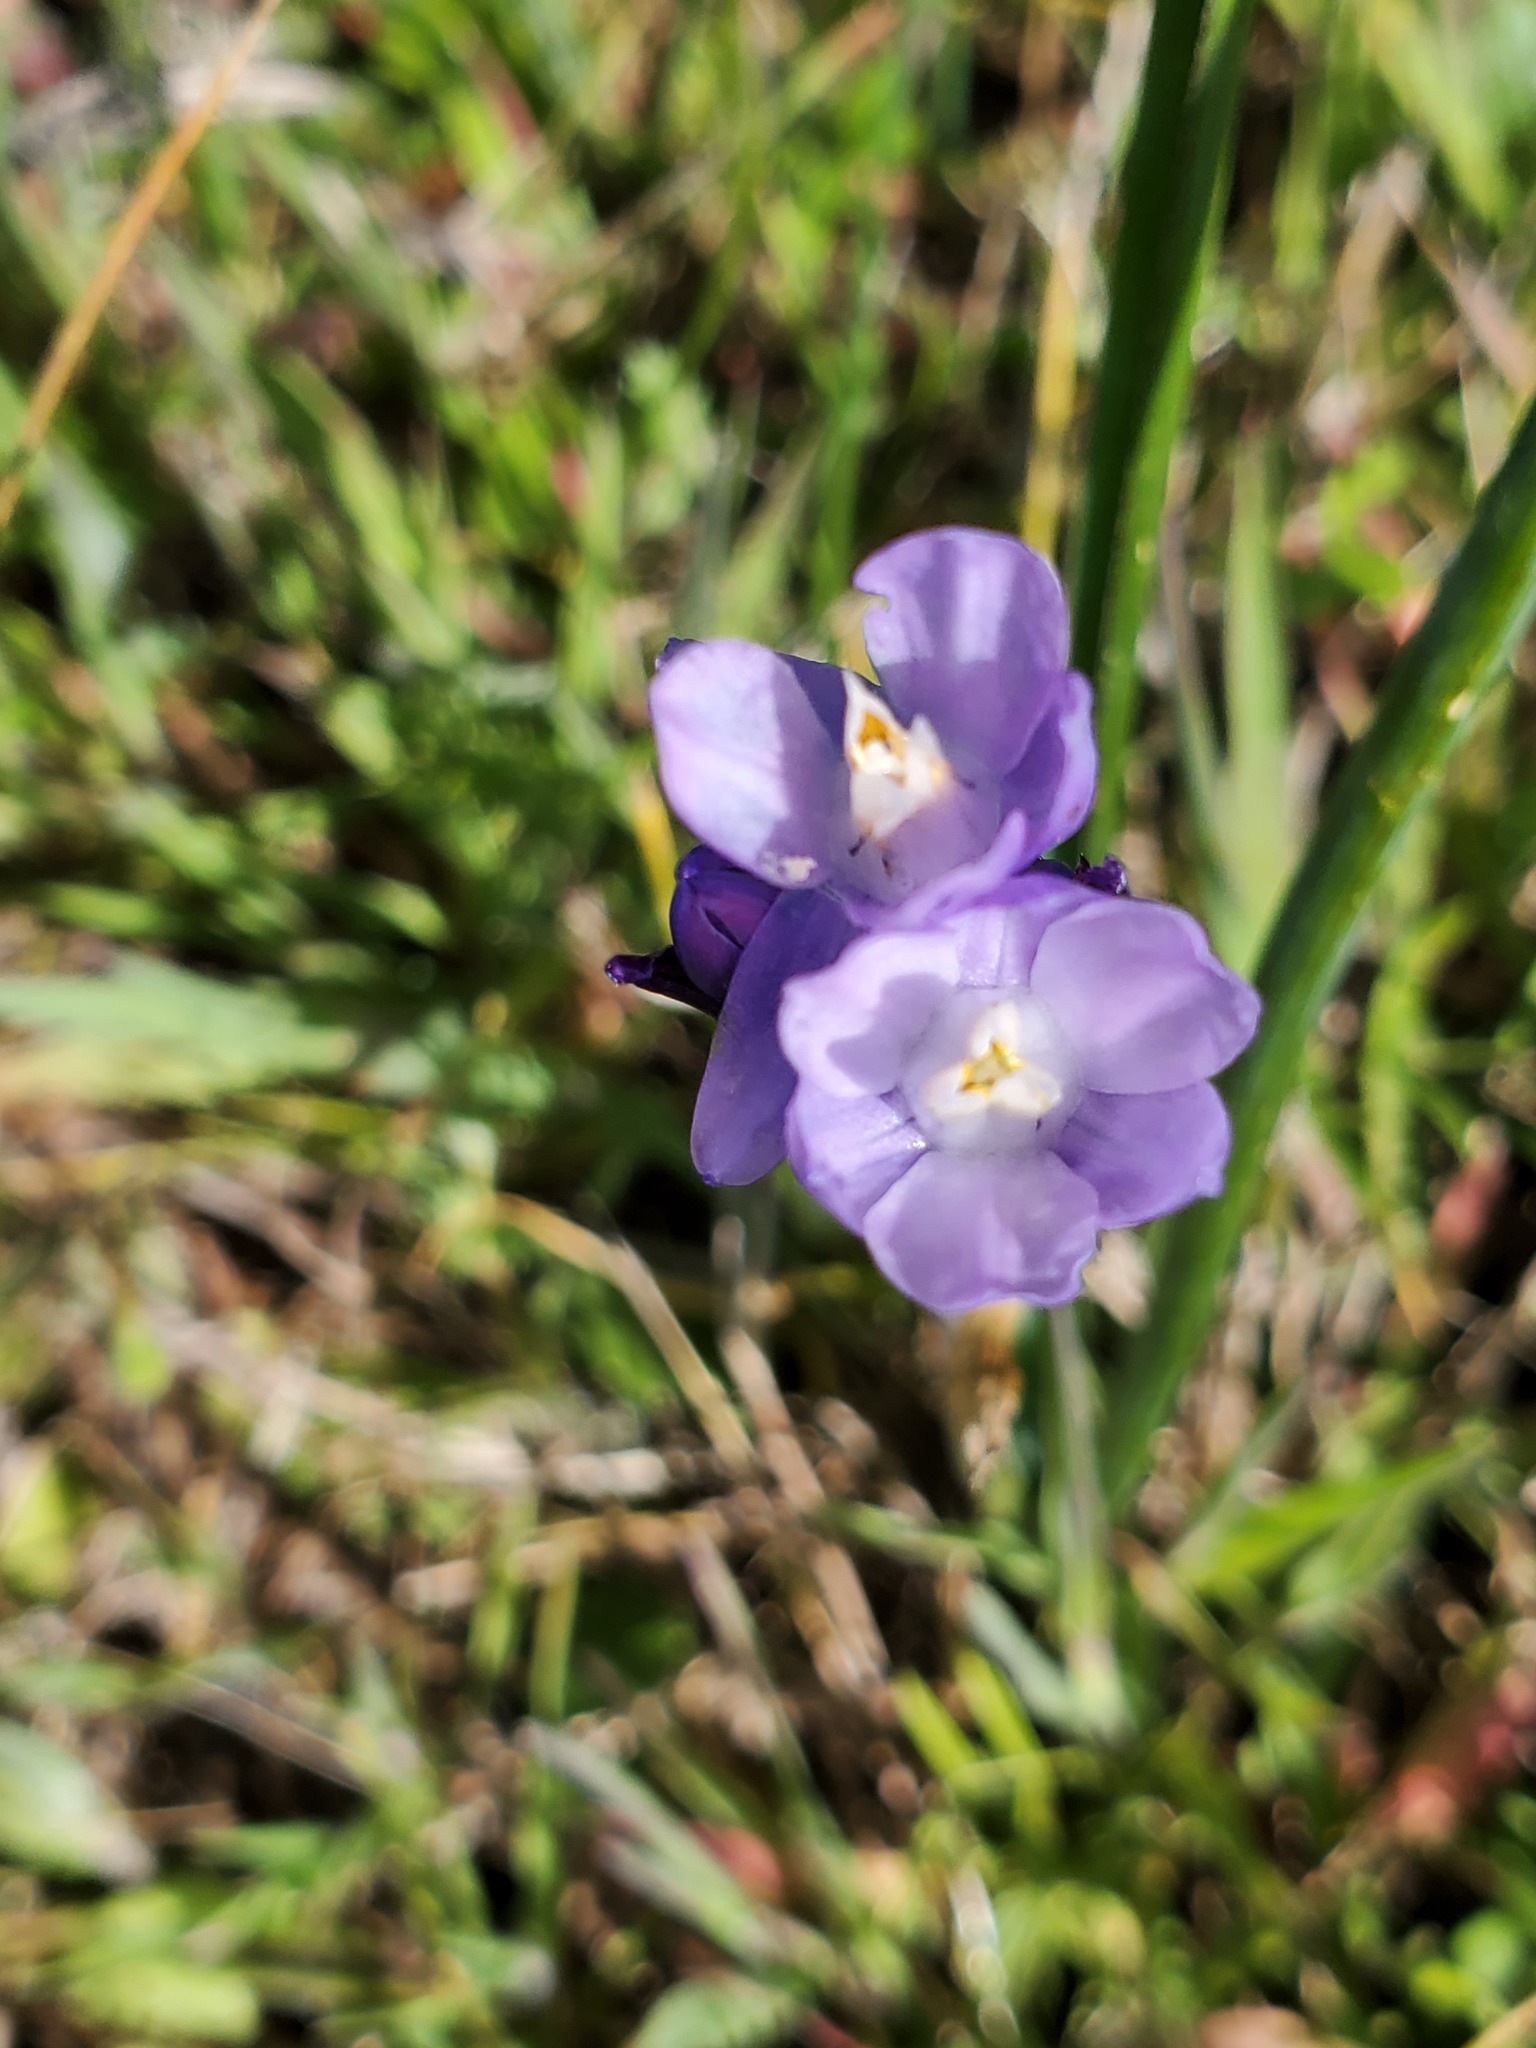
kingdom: Plantae
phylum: Tracheophyta
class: Liliopsida
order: Asparagales
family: Asparagaceae
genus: Dipterostemon
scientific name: Dipterostemon capitatus
